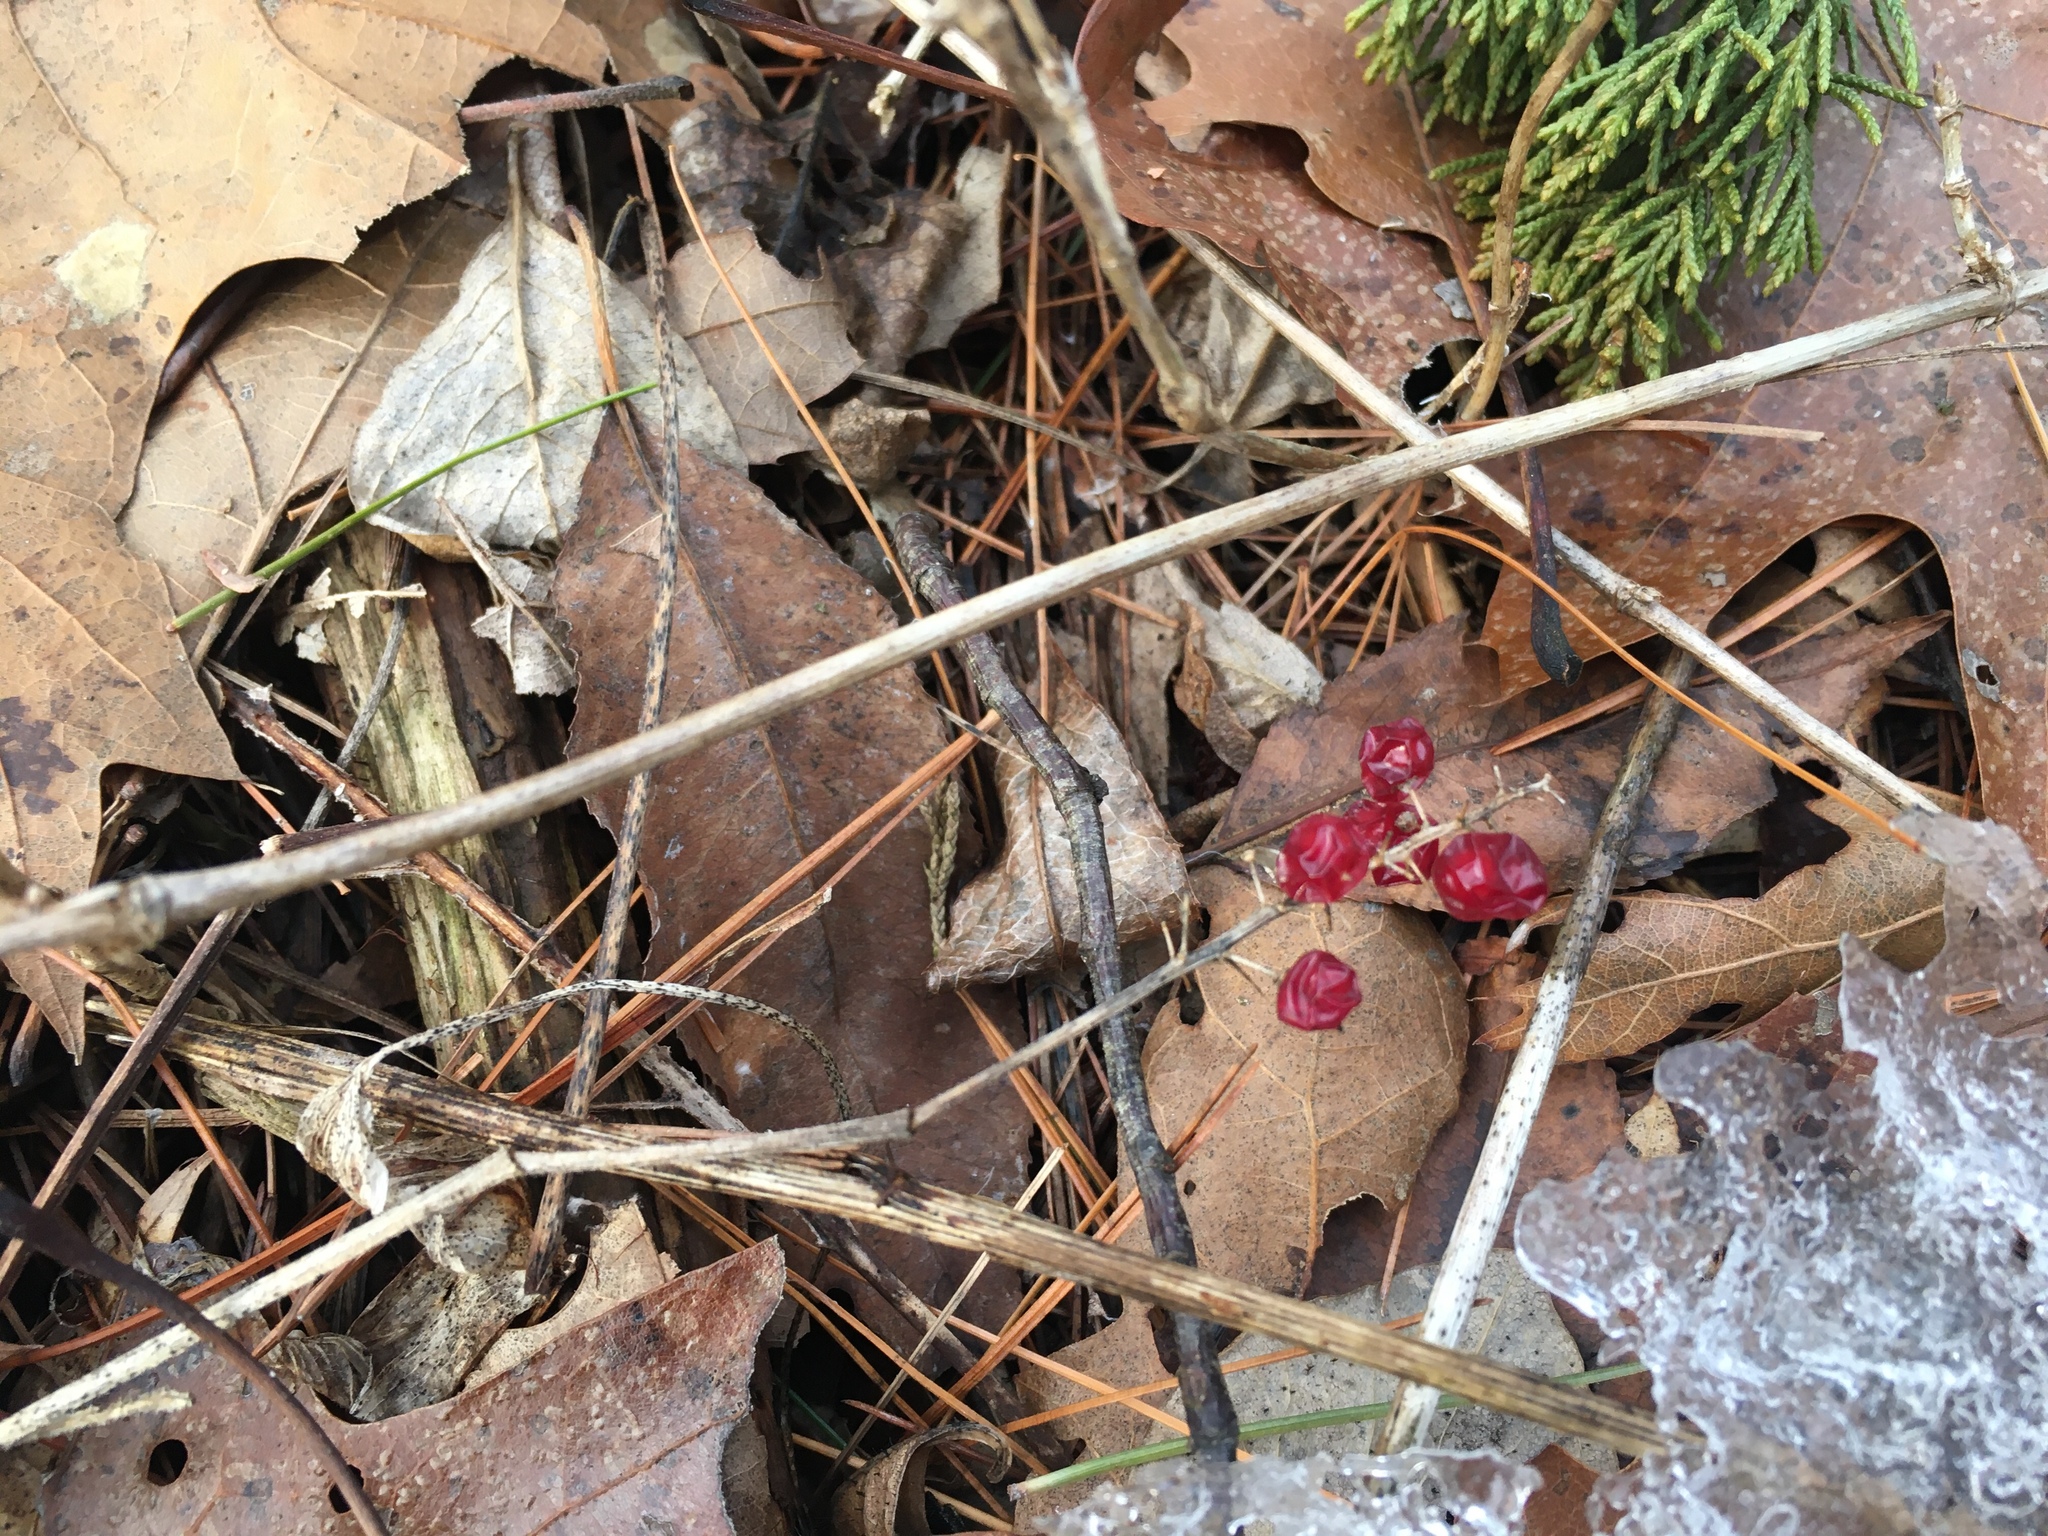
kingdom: Plantae
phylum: Tracheophyta
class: Liliopsida
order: Asparagales
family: Asparagaceae
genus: Maianthemum
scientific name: Maianthemum canadense
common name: False lily-of-the-valley
